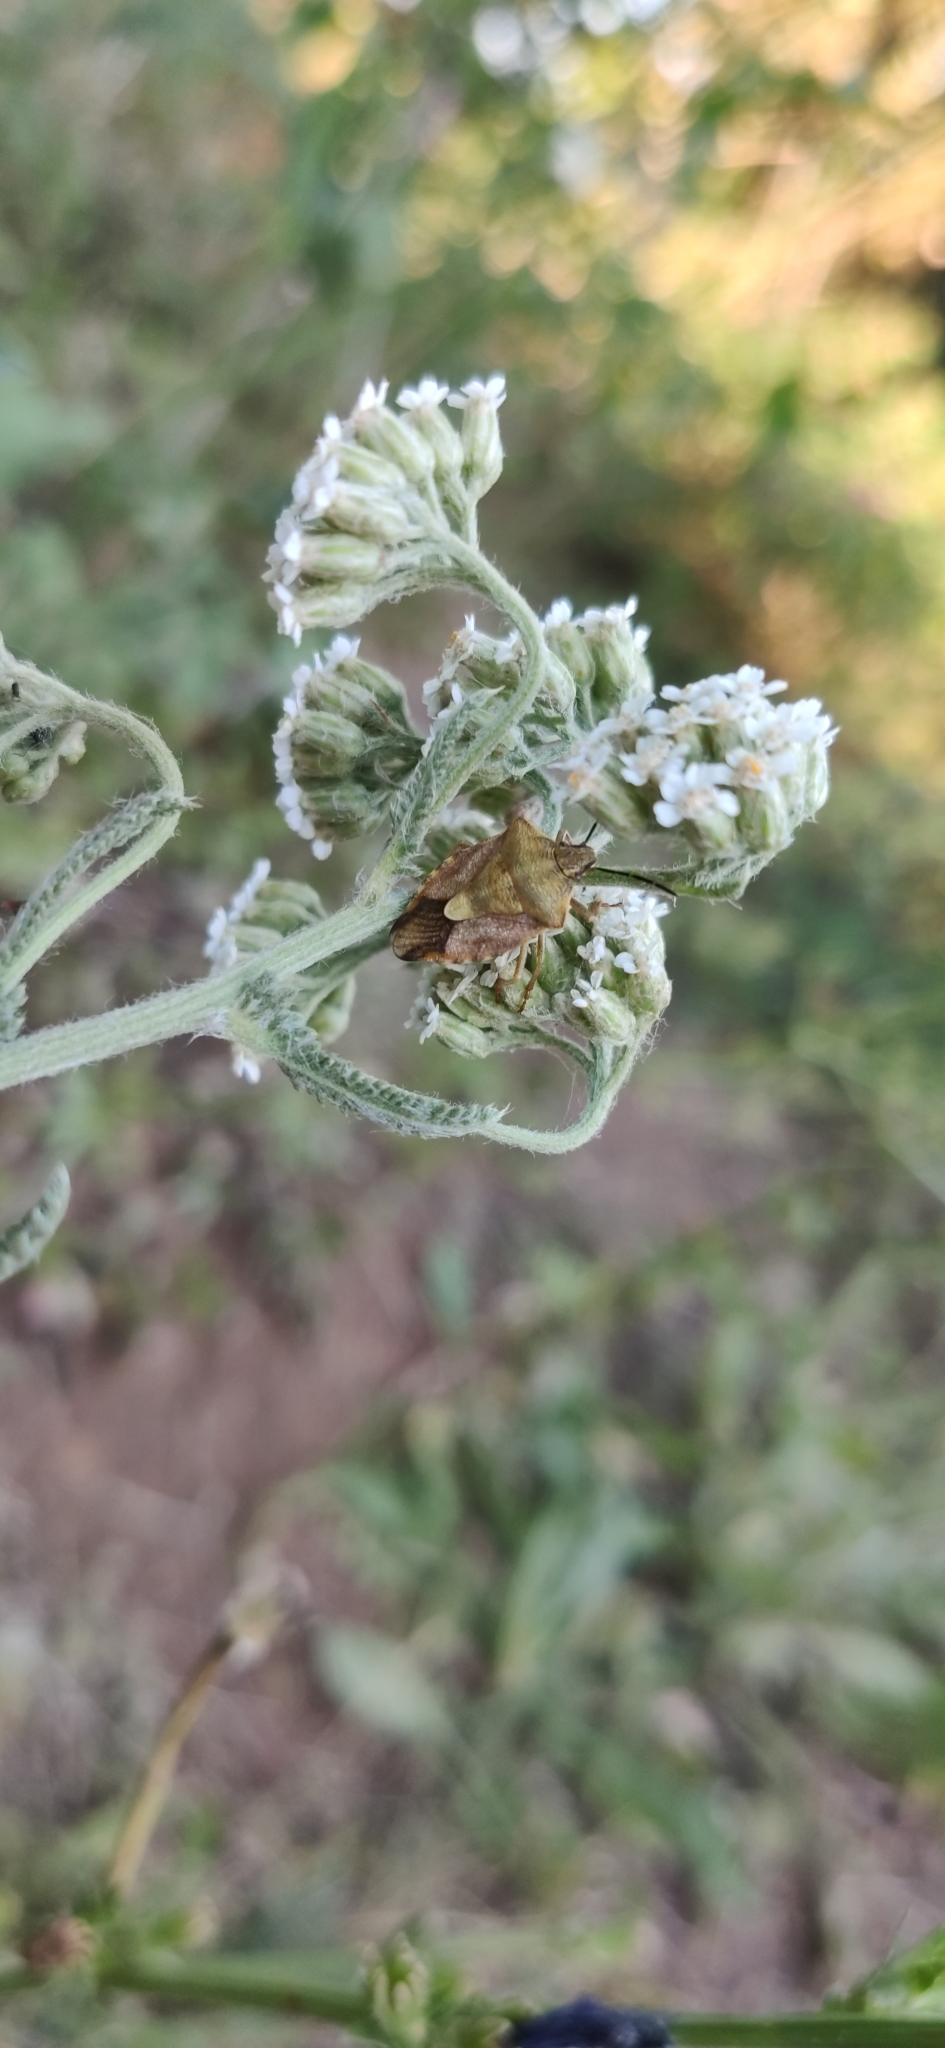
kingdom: Animalia
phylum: Arthropoda
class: Insecta
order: Hemiptera
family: Pentatomidae
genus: Carpocoris
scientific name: Carpocoris purpureipennis
